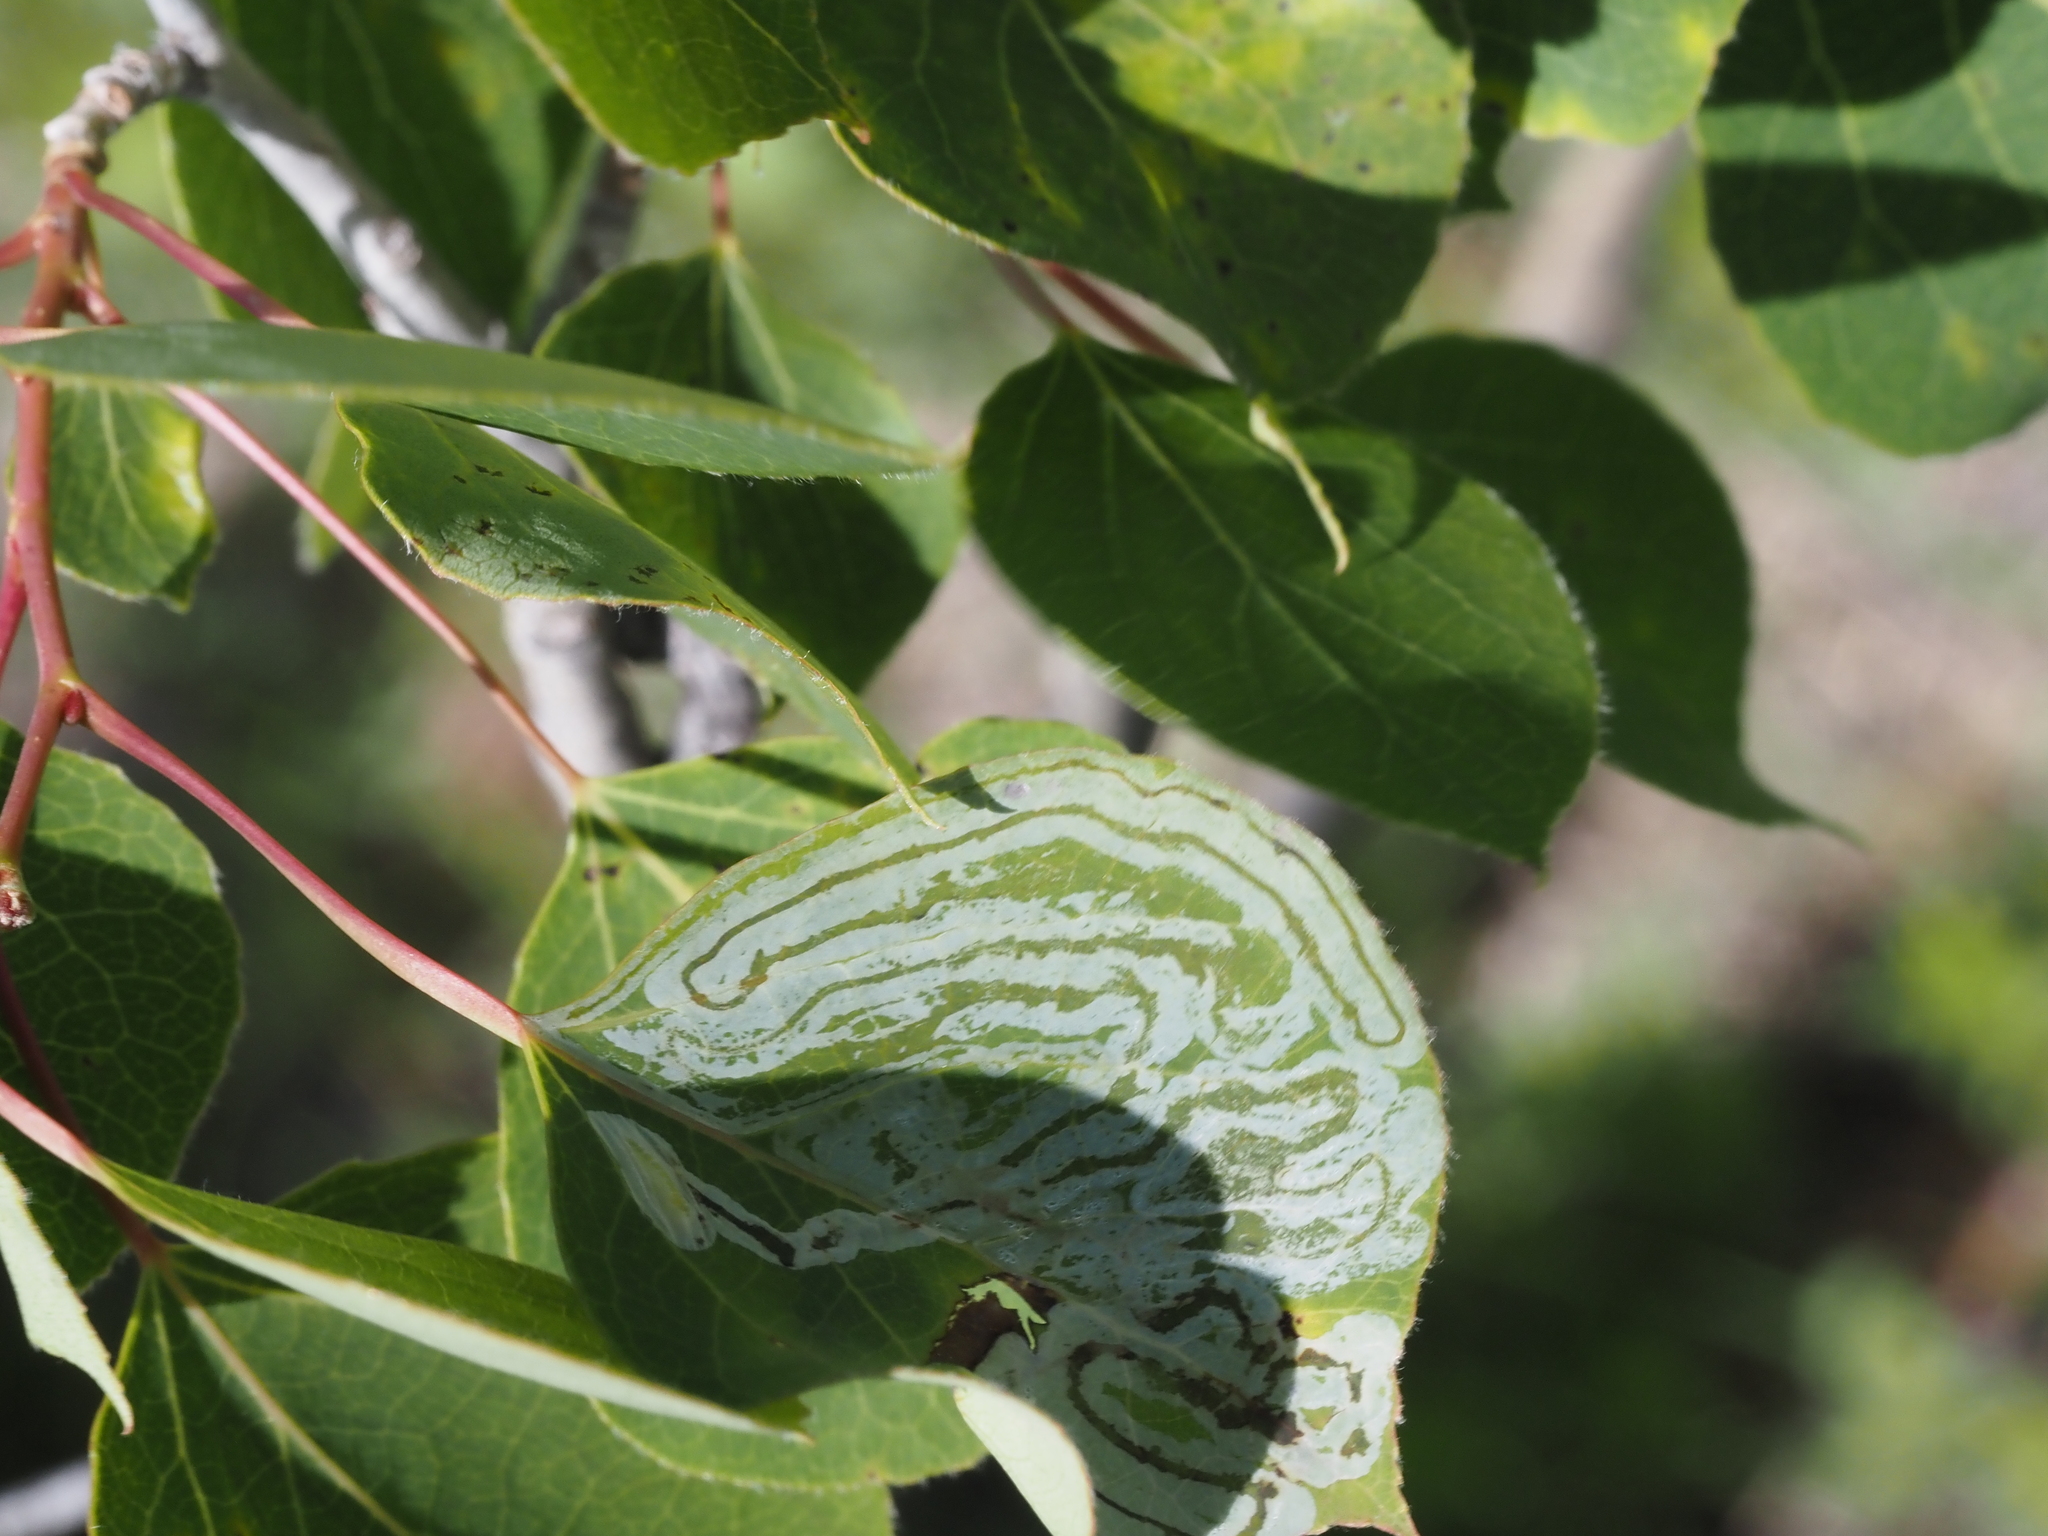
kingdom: Animalia
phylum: Arthropoda
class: Insecta
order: Lepidoptera
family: Gracillariidae
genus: Phyllocnistis
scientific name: Phyllocnistis populiella
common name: Aspen serpentine leafminer moth
